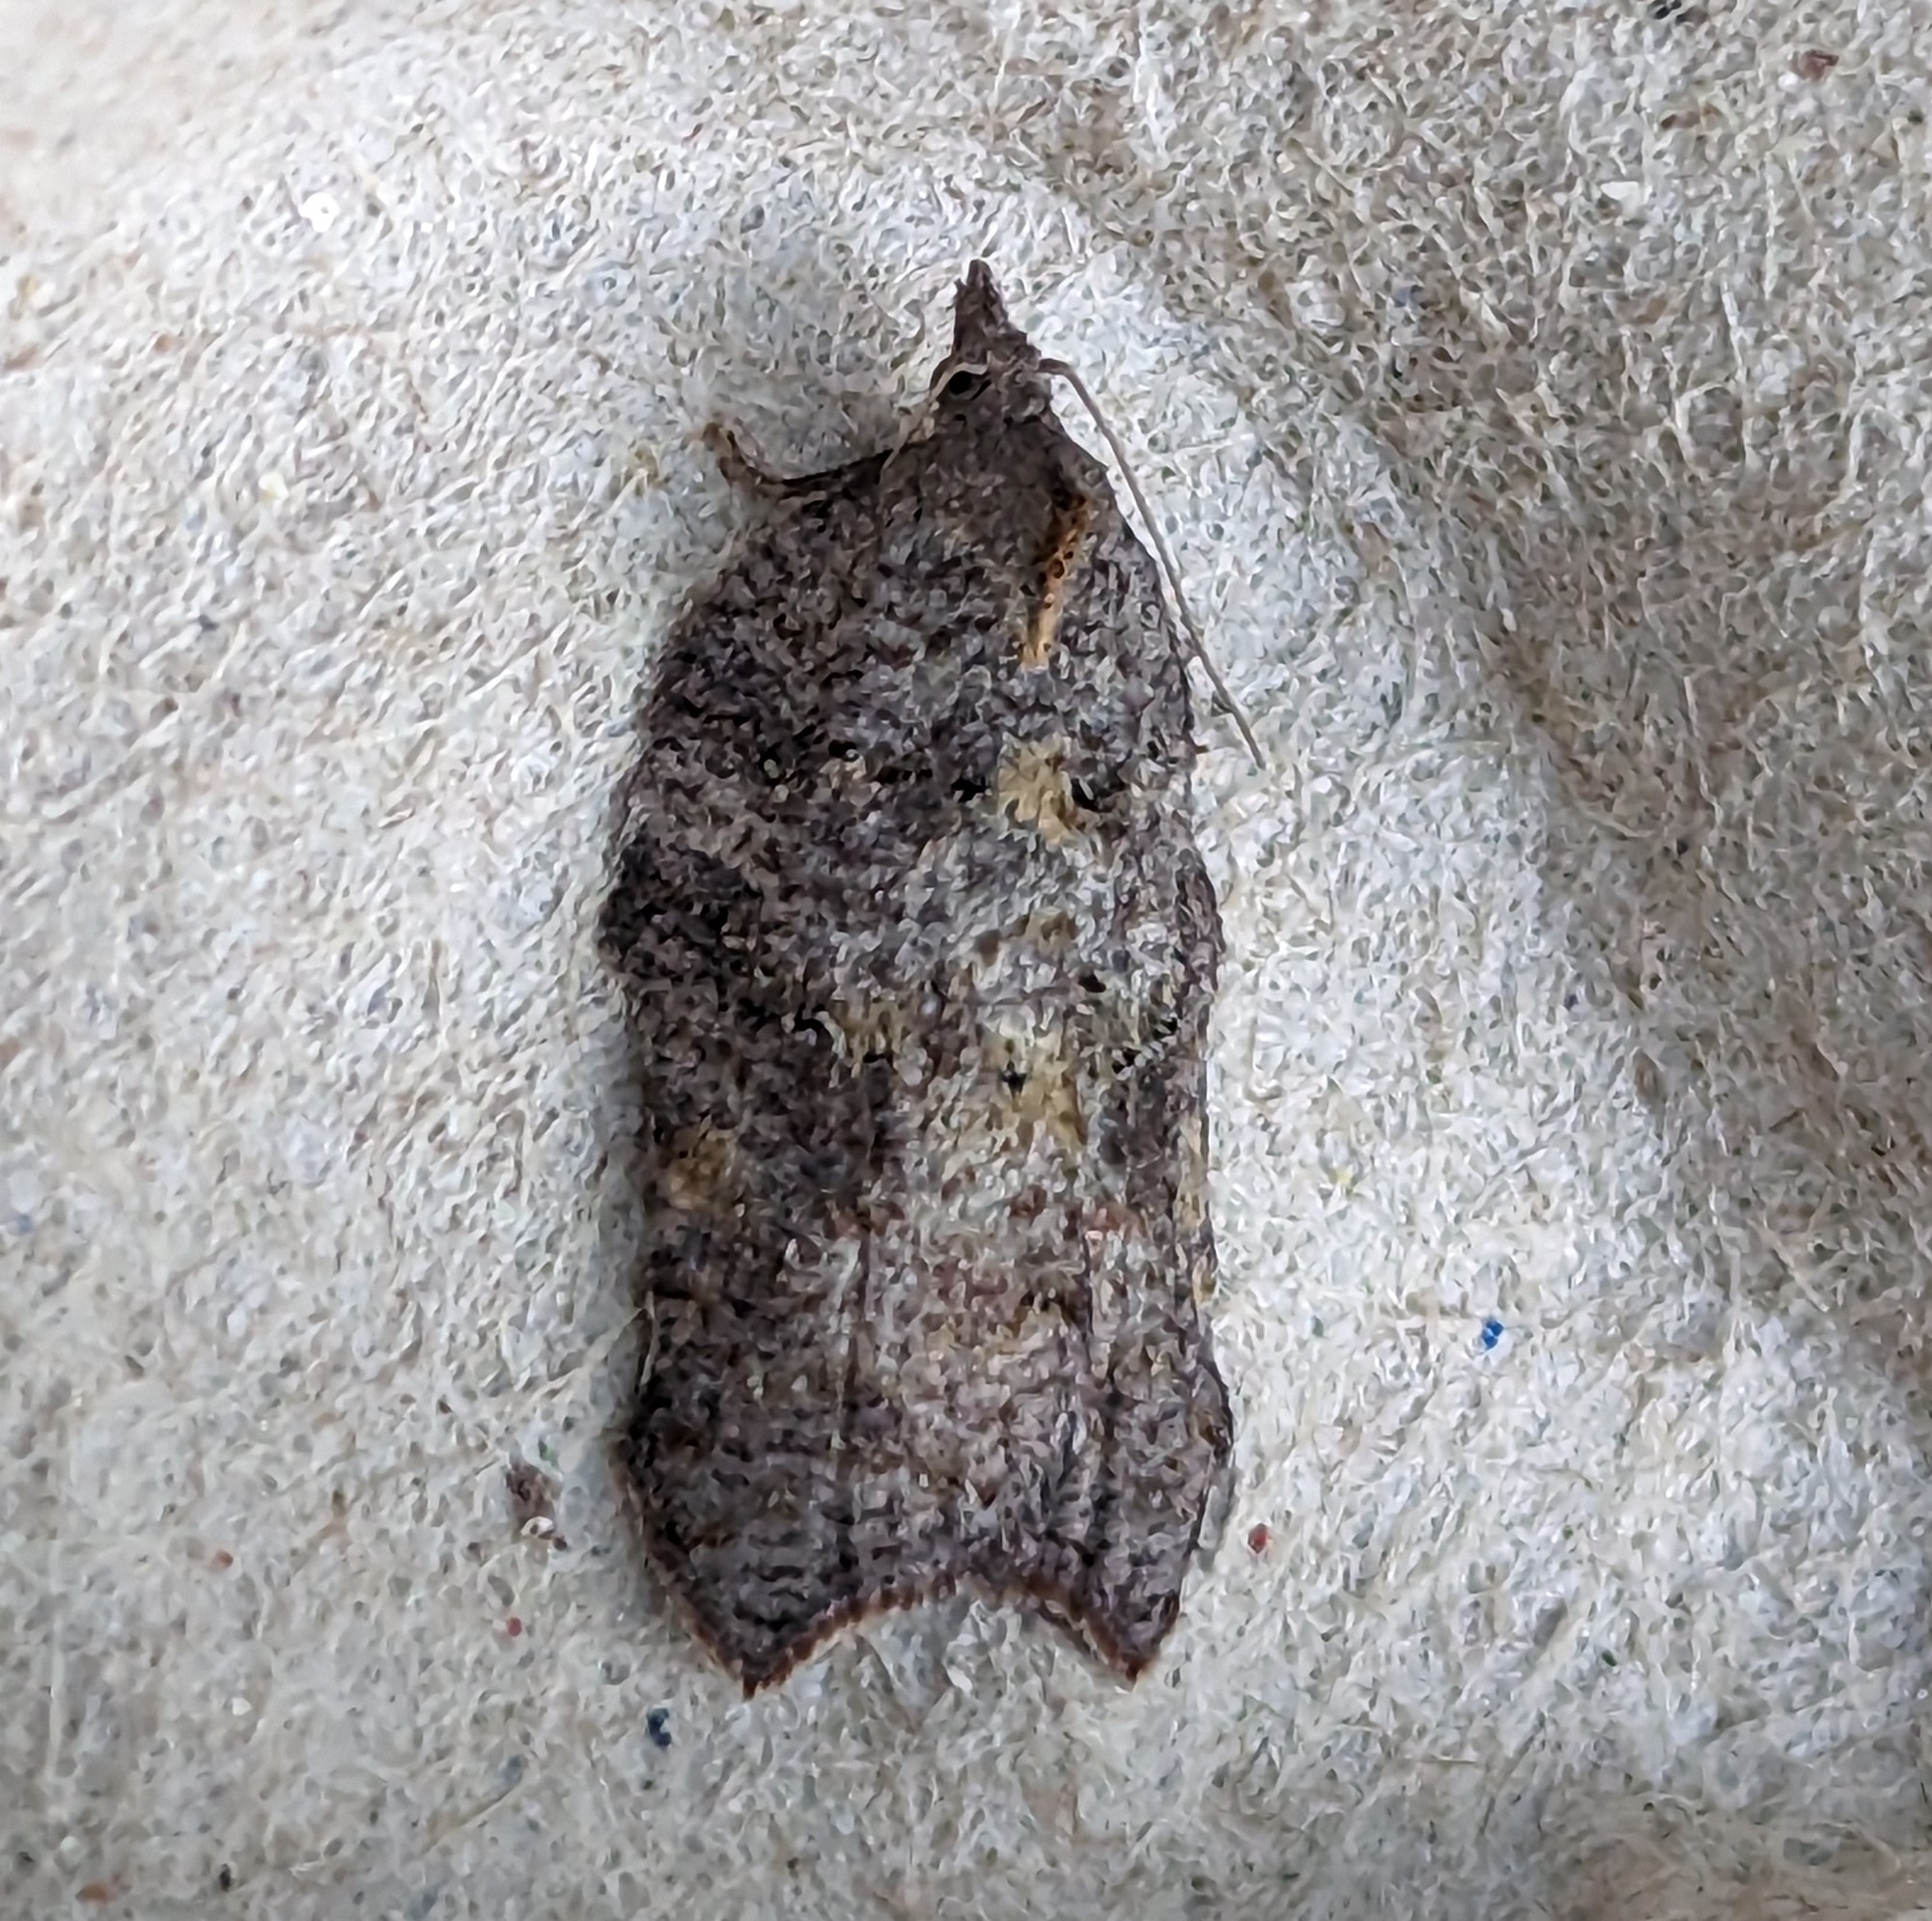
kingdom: Animalia
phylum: Arthropoda
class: Insecta
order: Lepidoptera
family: Tortricidae
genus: Acleris
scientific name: Acleris effractana
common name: Hook-winged tortrix moth
